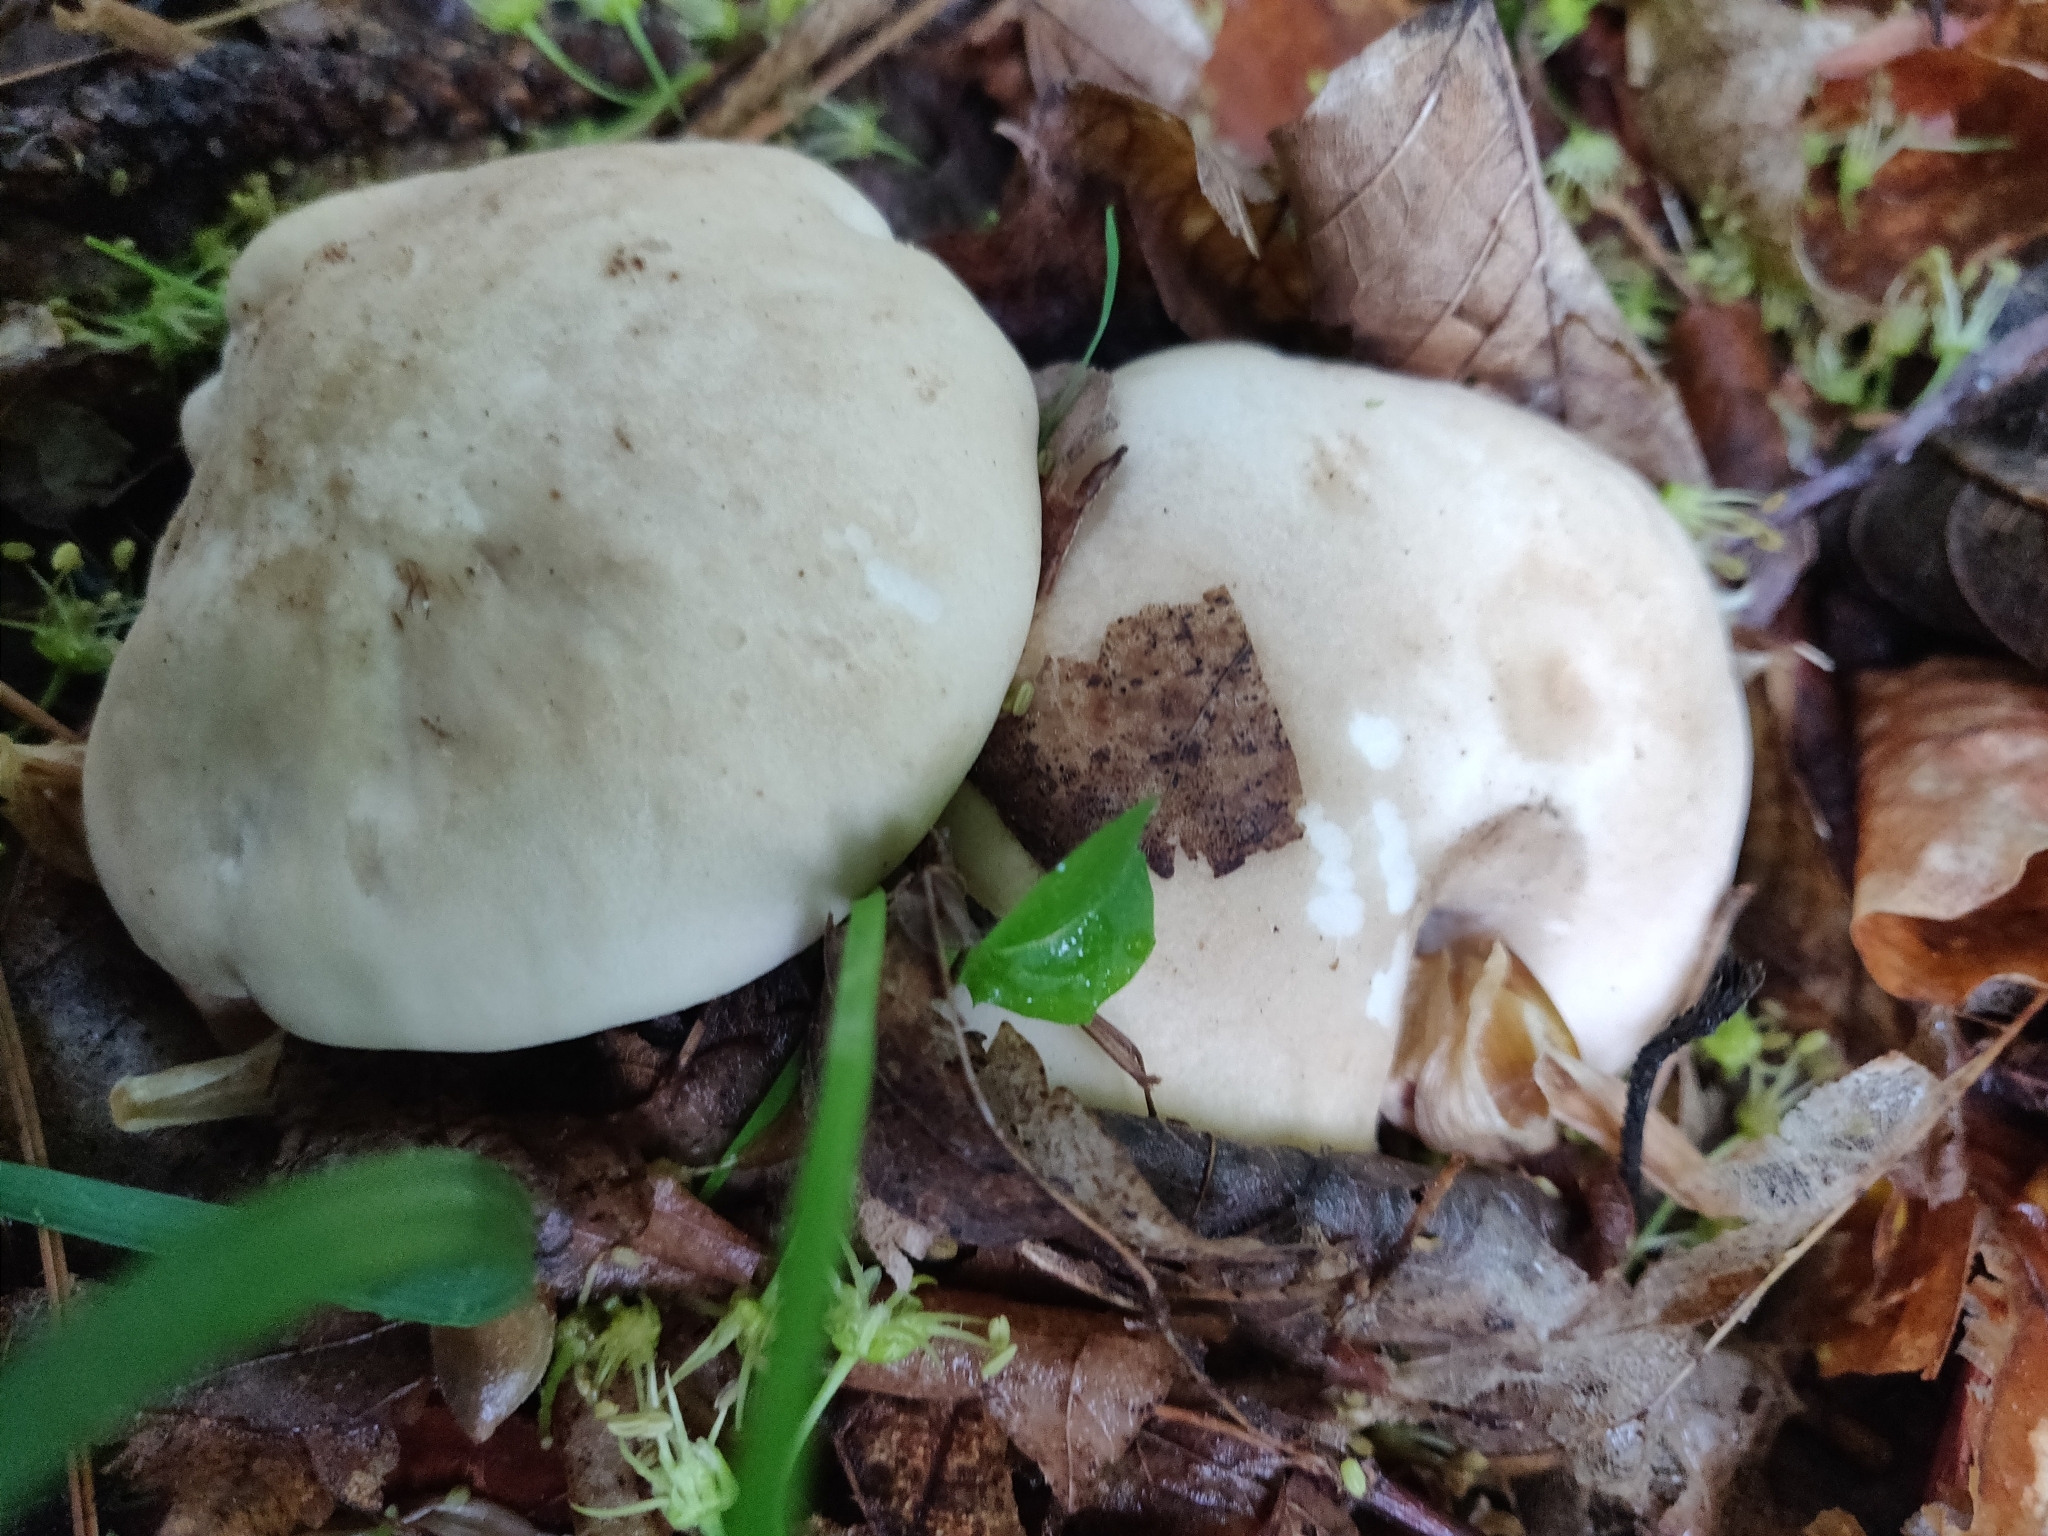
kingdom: Fungi
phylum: Basidiomycota
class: Agaricomycetes
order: Agaricales
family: Lyophyllaceae
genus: Calocybe
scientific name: Calocybe gambosa
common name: St. george's mushroom
